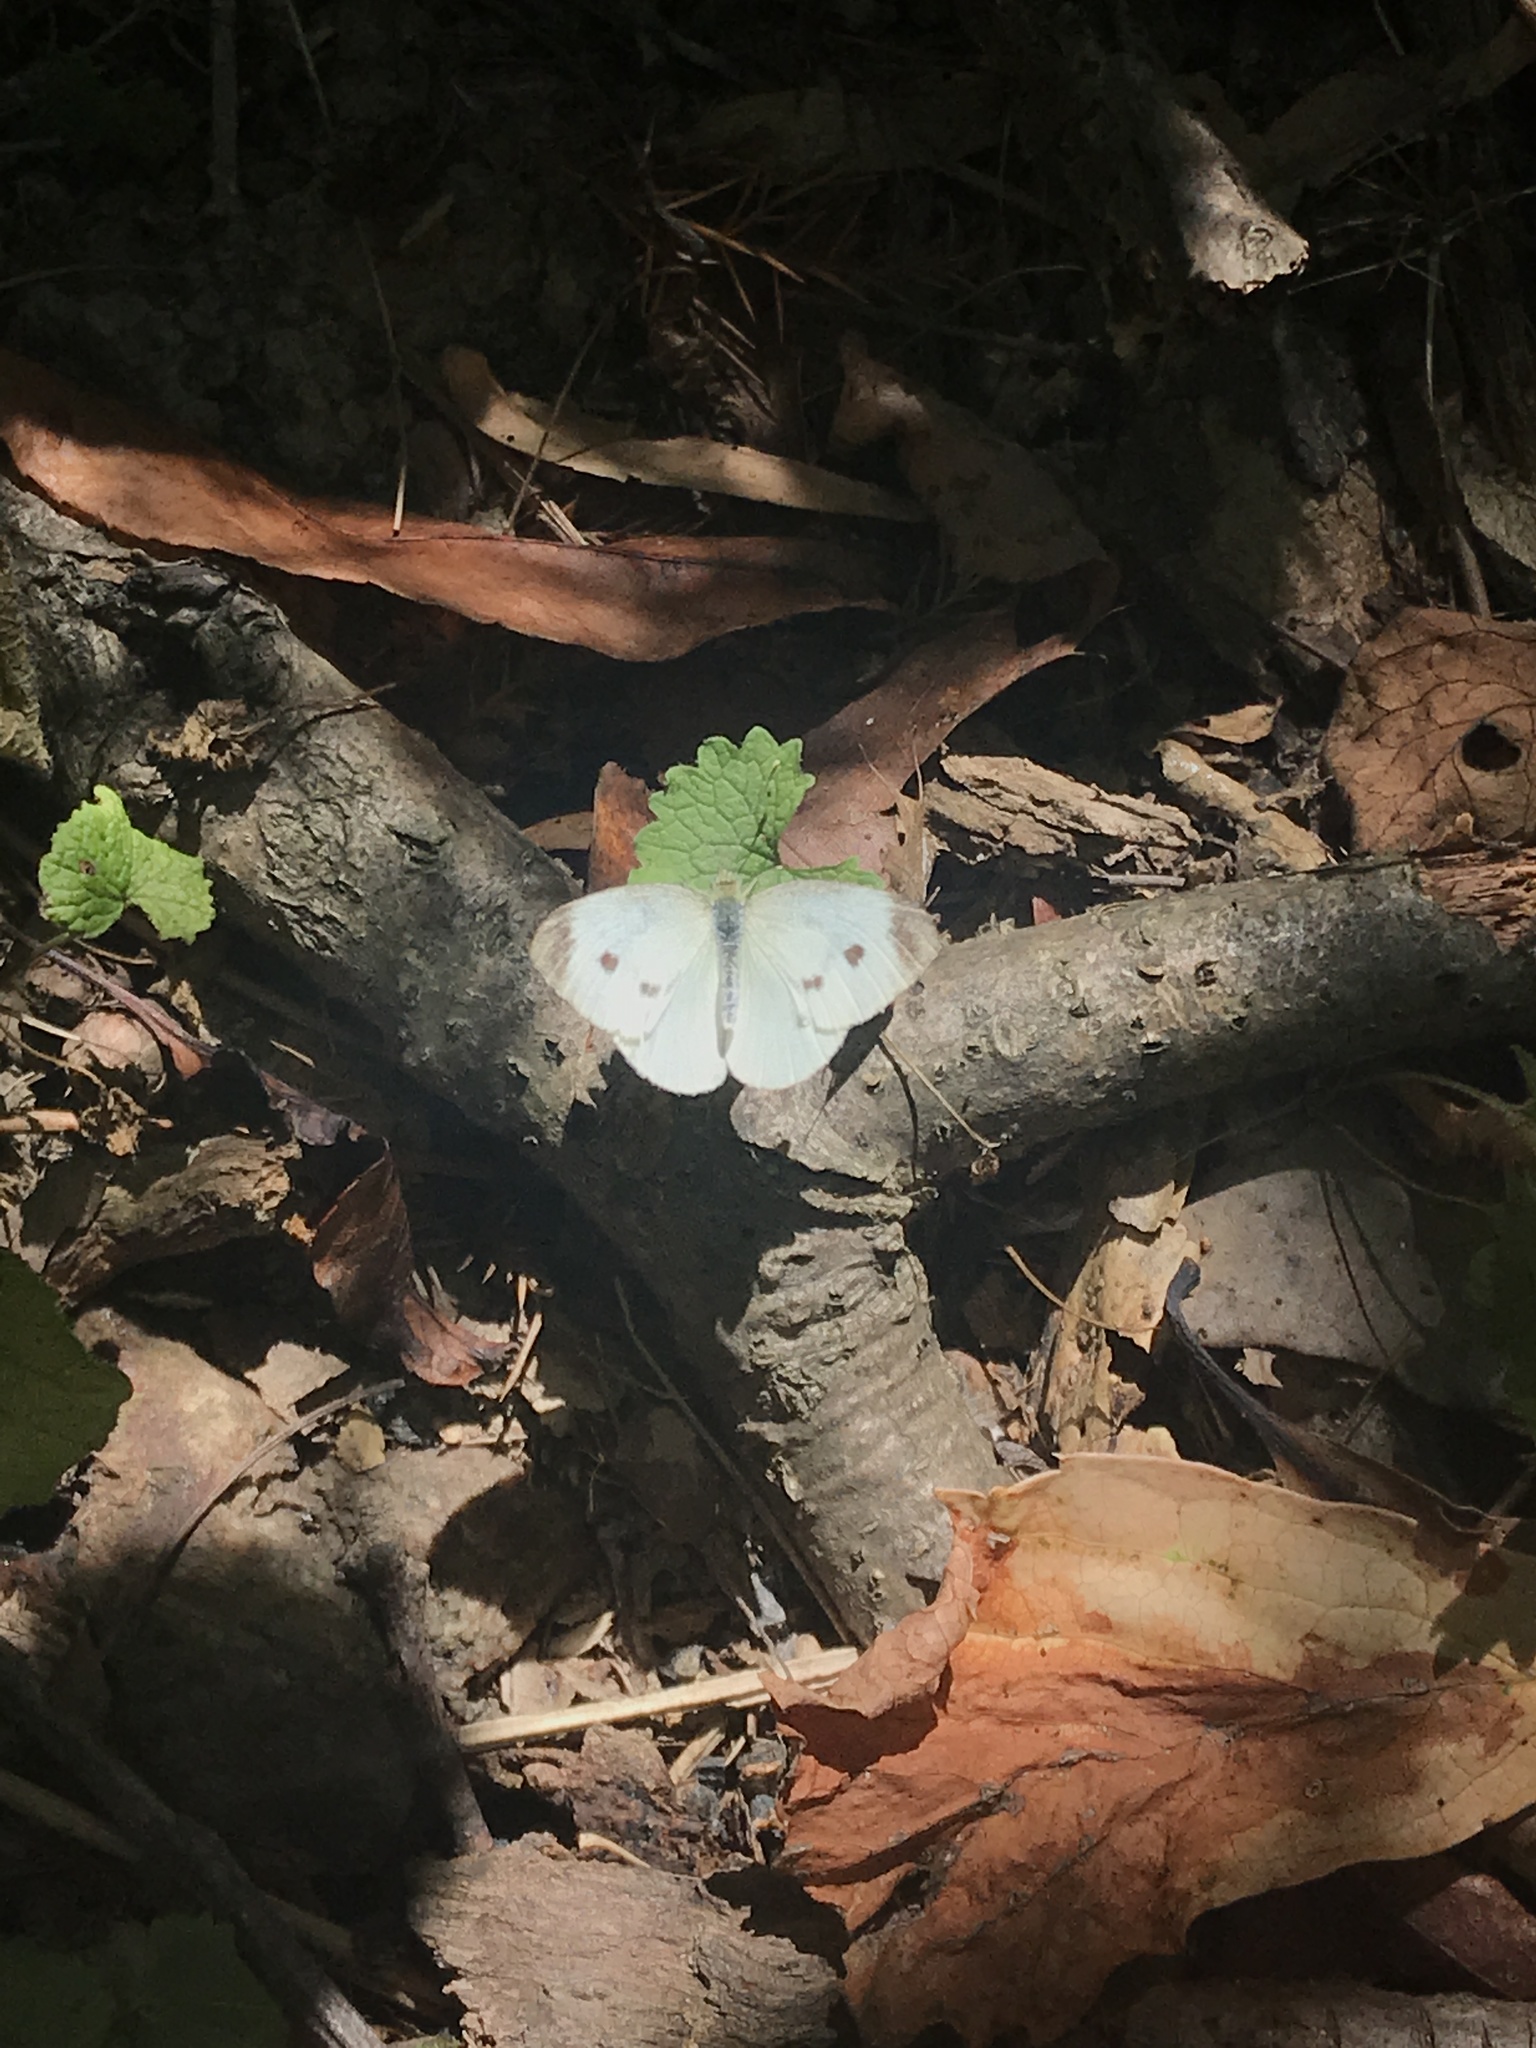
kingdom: Animalia
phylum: Arthropoda
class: Insecta
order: Lepidoptera
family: Pieridae
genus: Pieris
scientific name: Pieris rapae
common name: Small white
